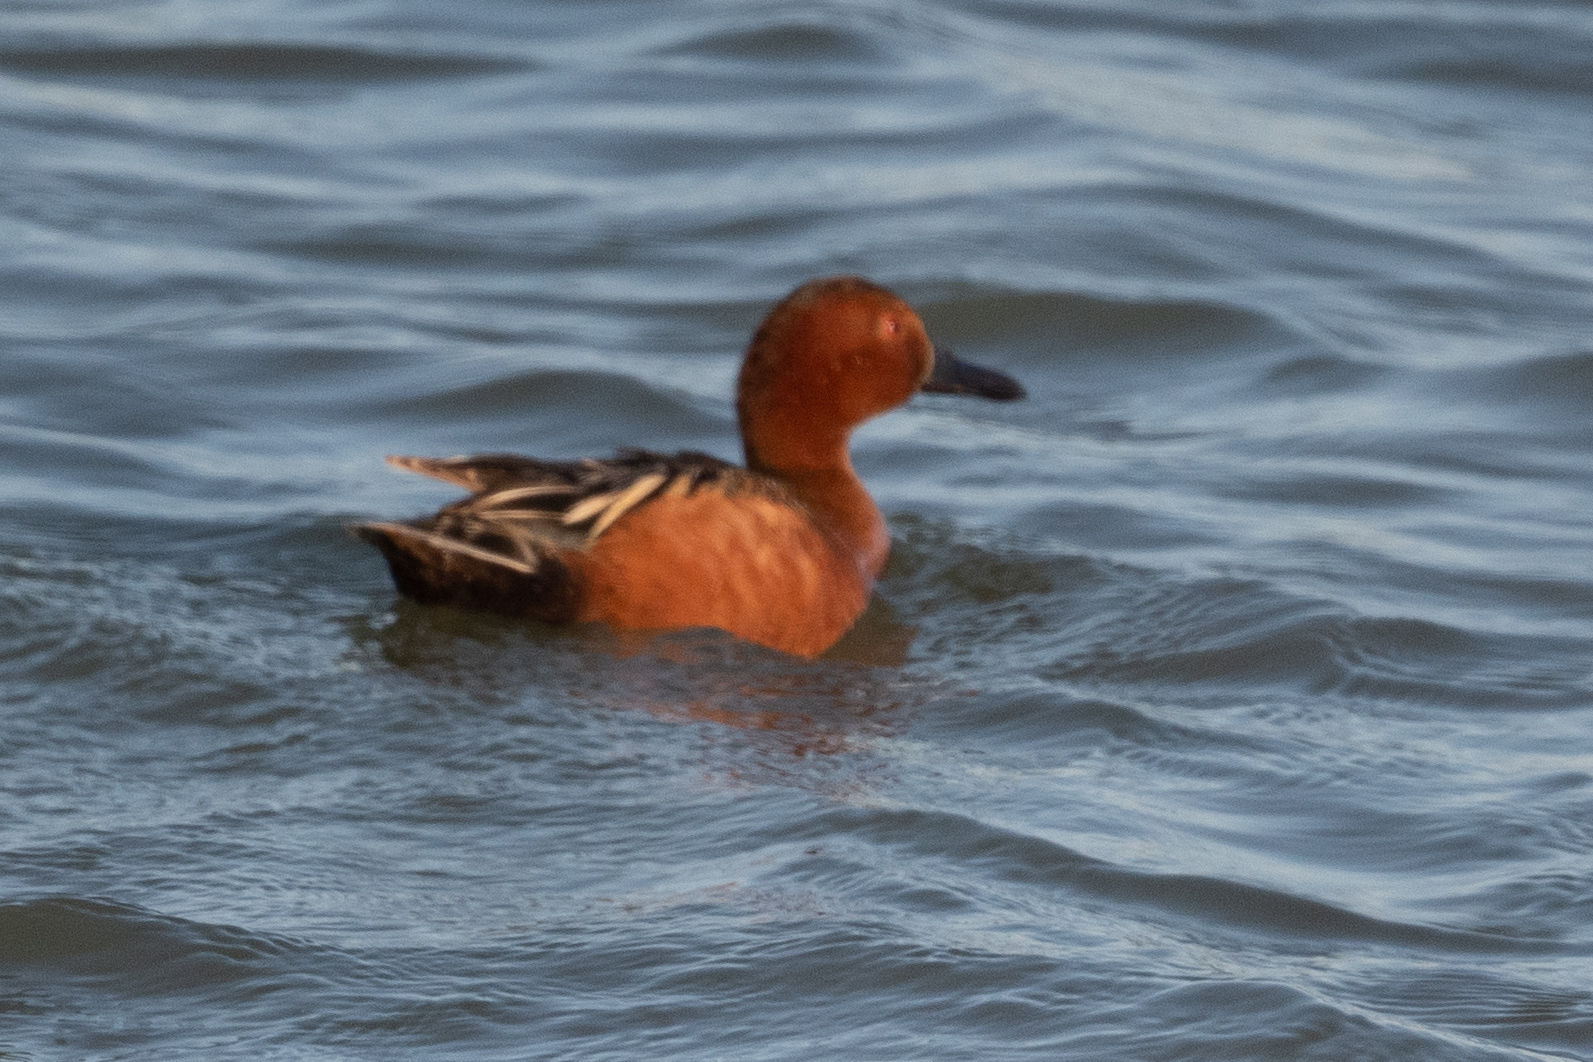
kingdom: Animalia
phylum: Chordata
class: Aves
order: Anseriformes
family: Anatidae
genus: Spatula
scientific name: Spatula cyanoptera
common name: Cinnamon teal
